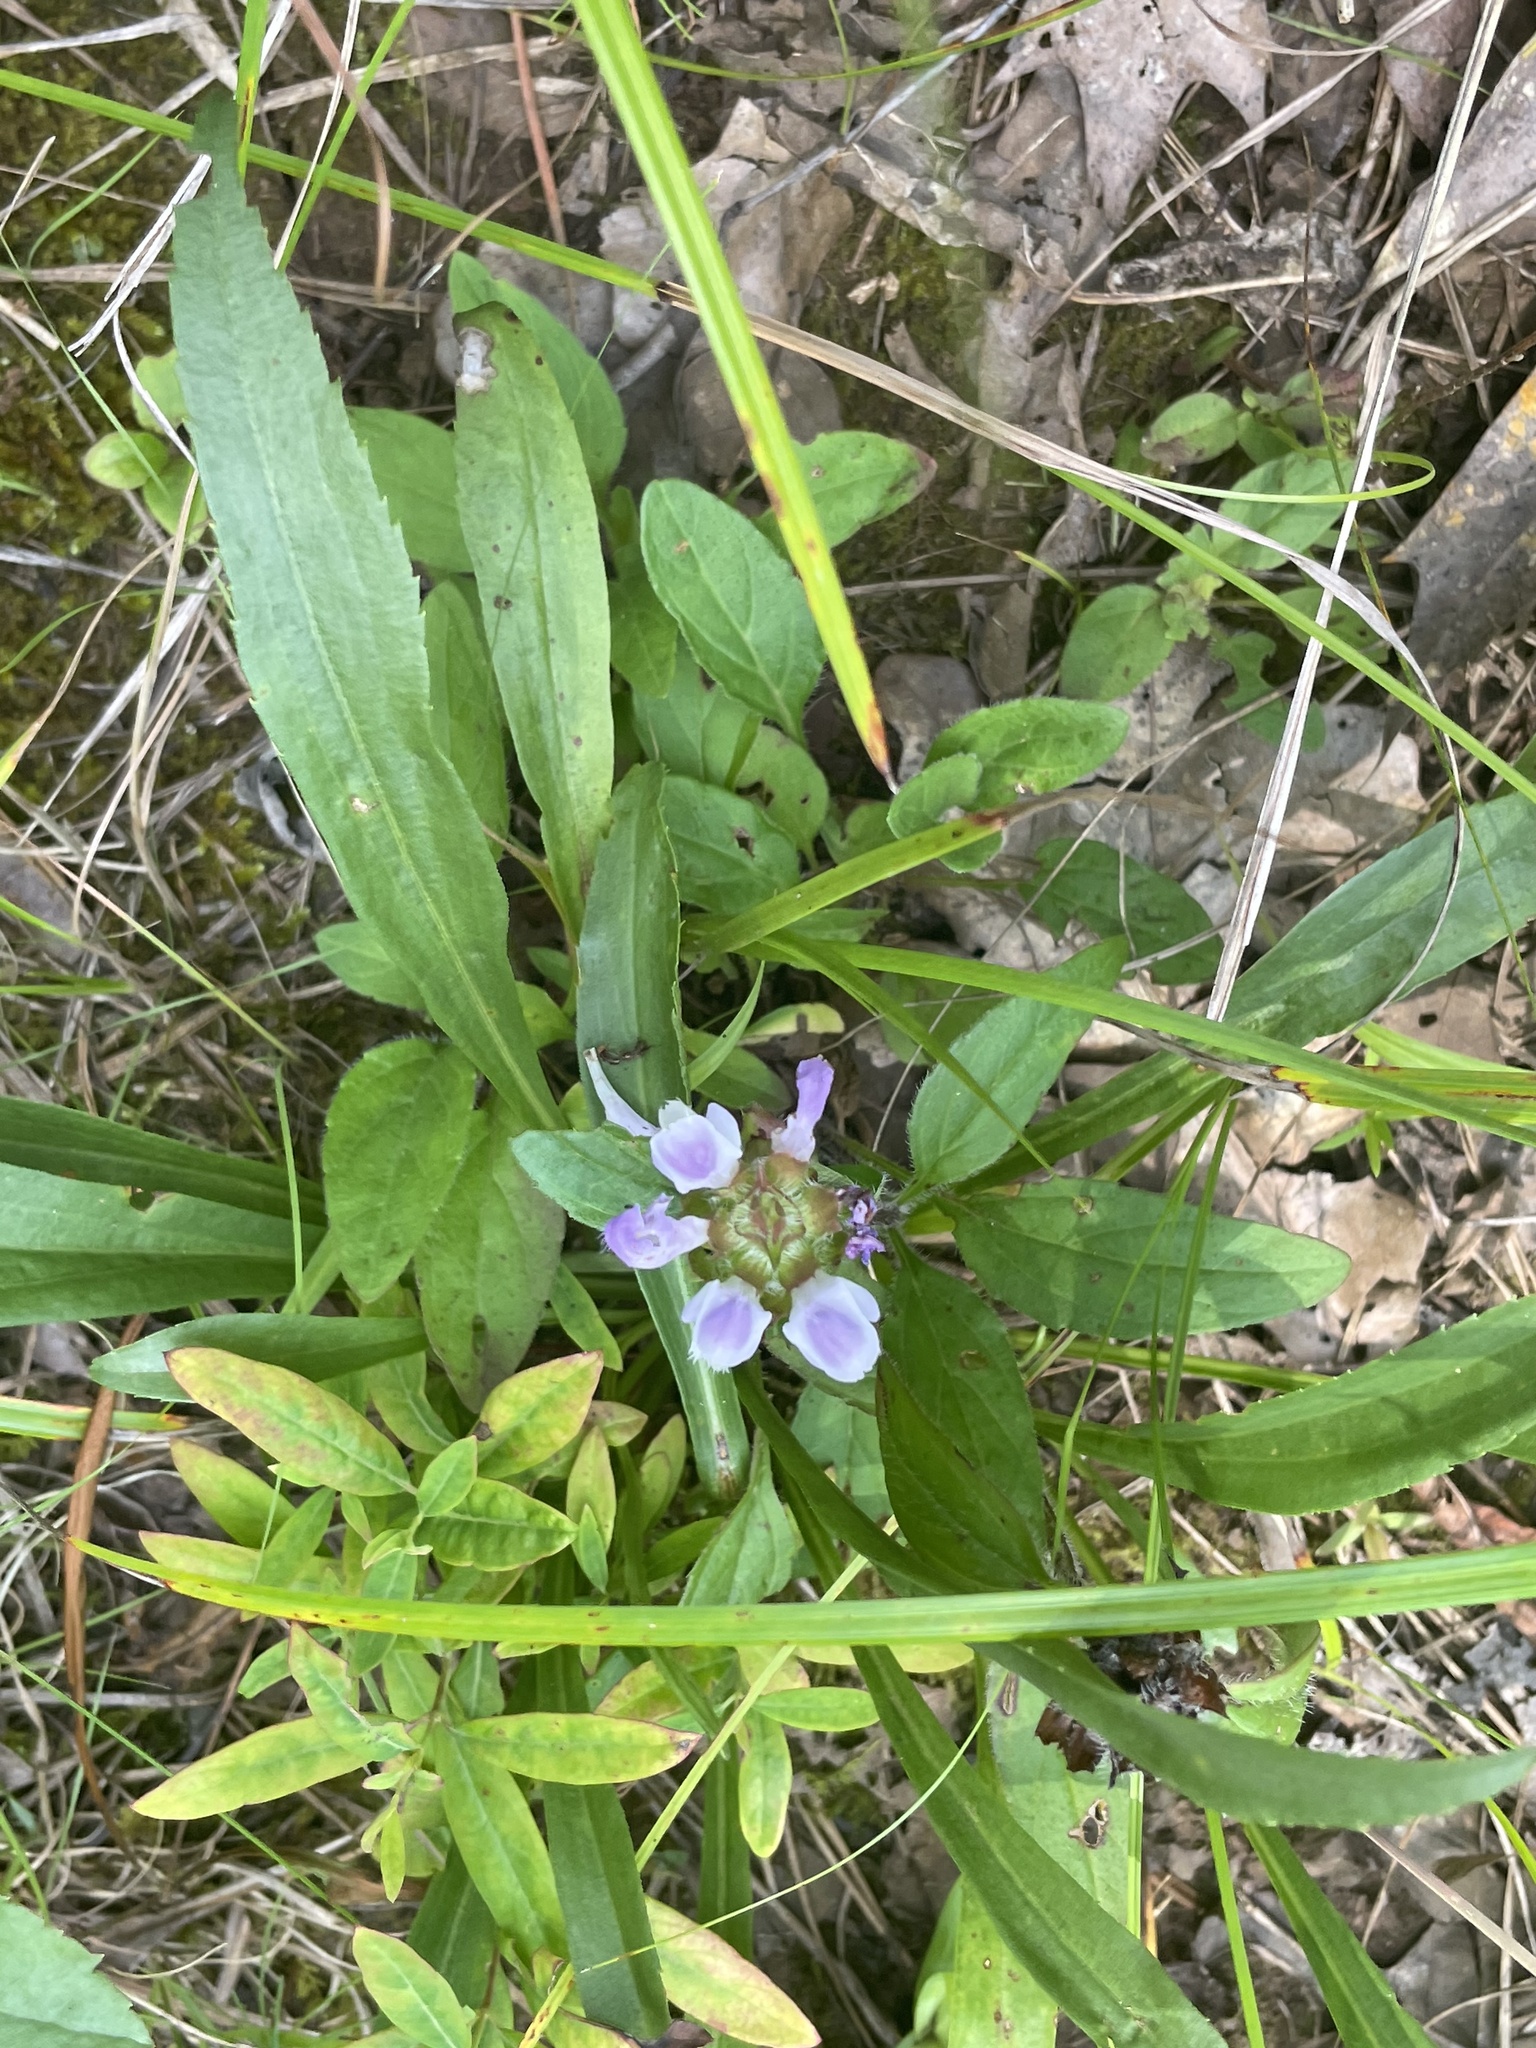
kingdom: Plantae
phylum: Tracheophyta
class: Magnoliopsida
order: Lamiales
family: Lamiaceae
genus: Prunella
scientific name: Prunella vulgaris
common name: Heal-all
